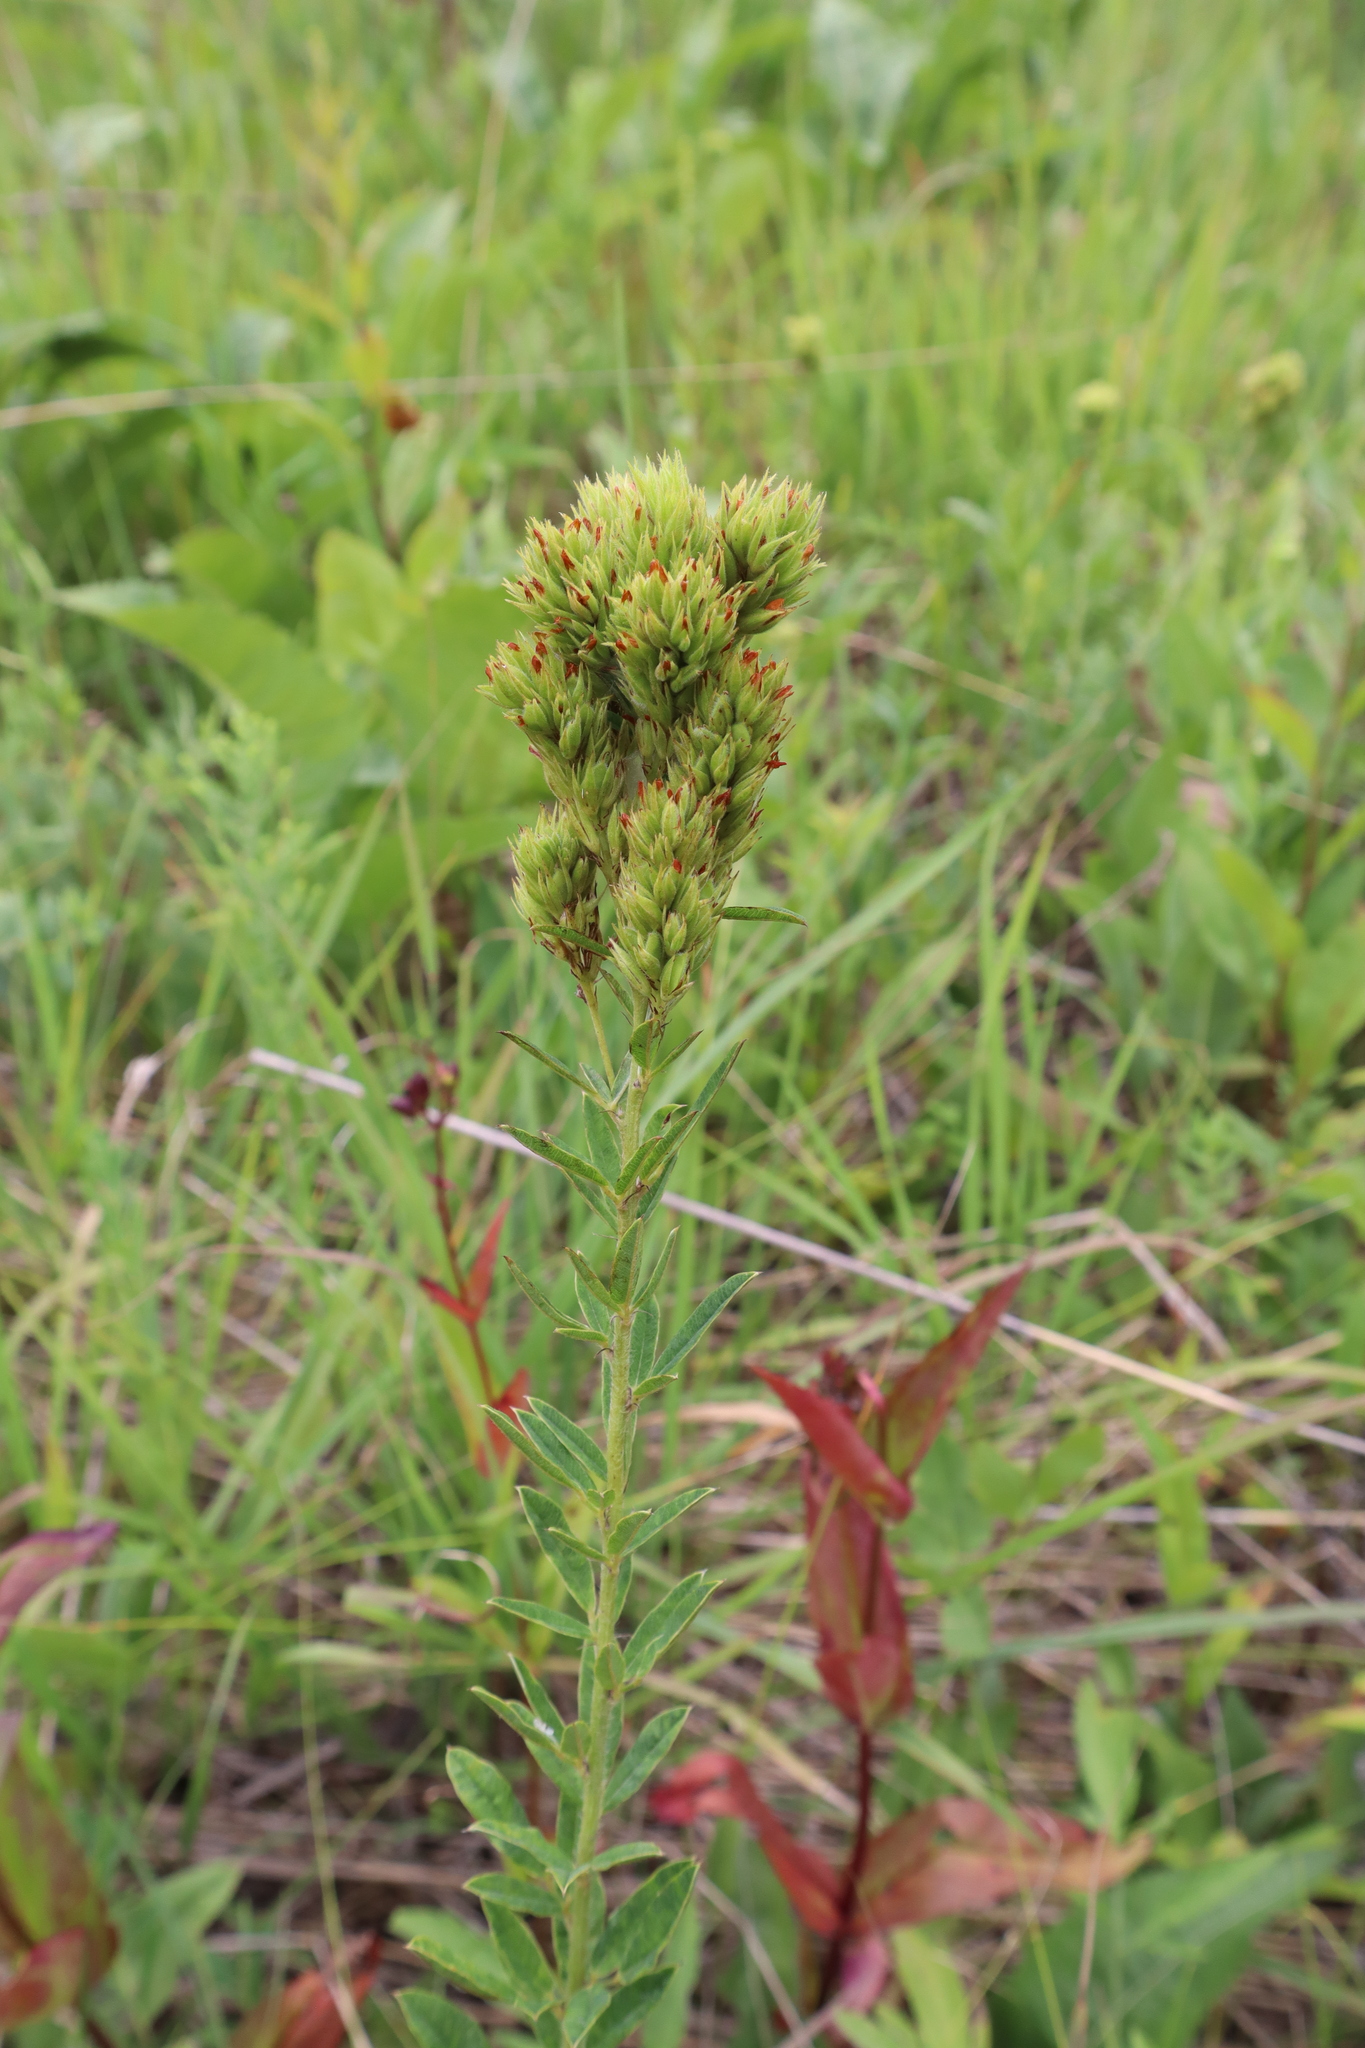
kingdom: Plantae
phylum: Tracheophyta
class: Magnoliopsida
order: Fabales
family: Fabaceae
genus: Lespedeza
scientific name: Lespedeza capitata
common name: Dusty clover
